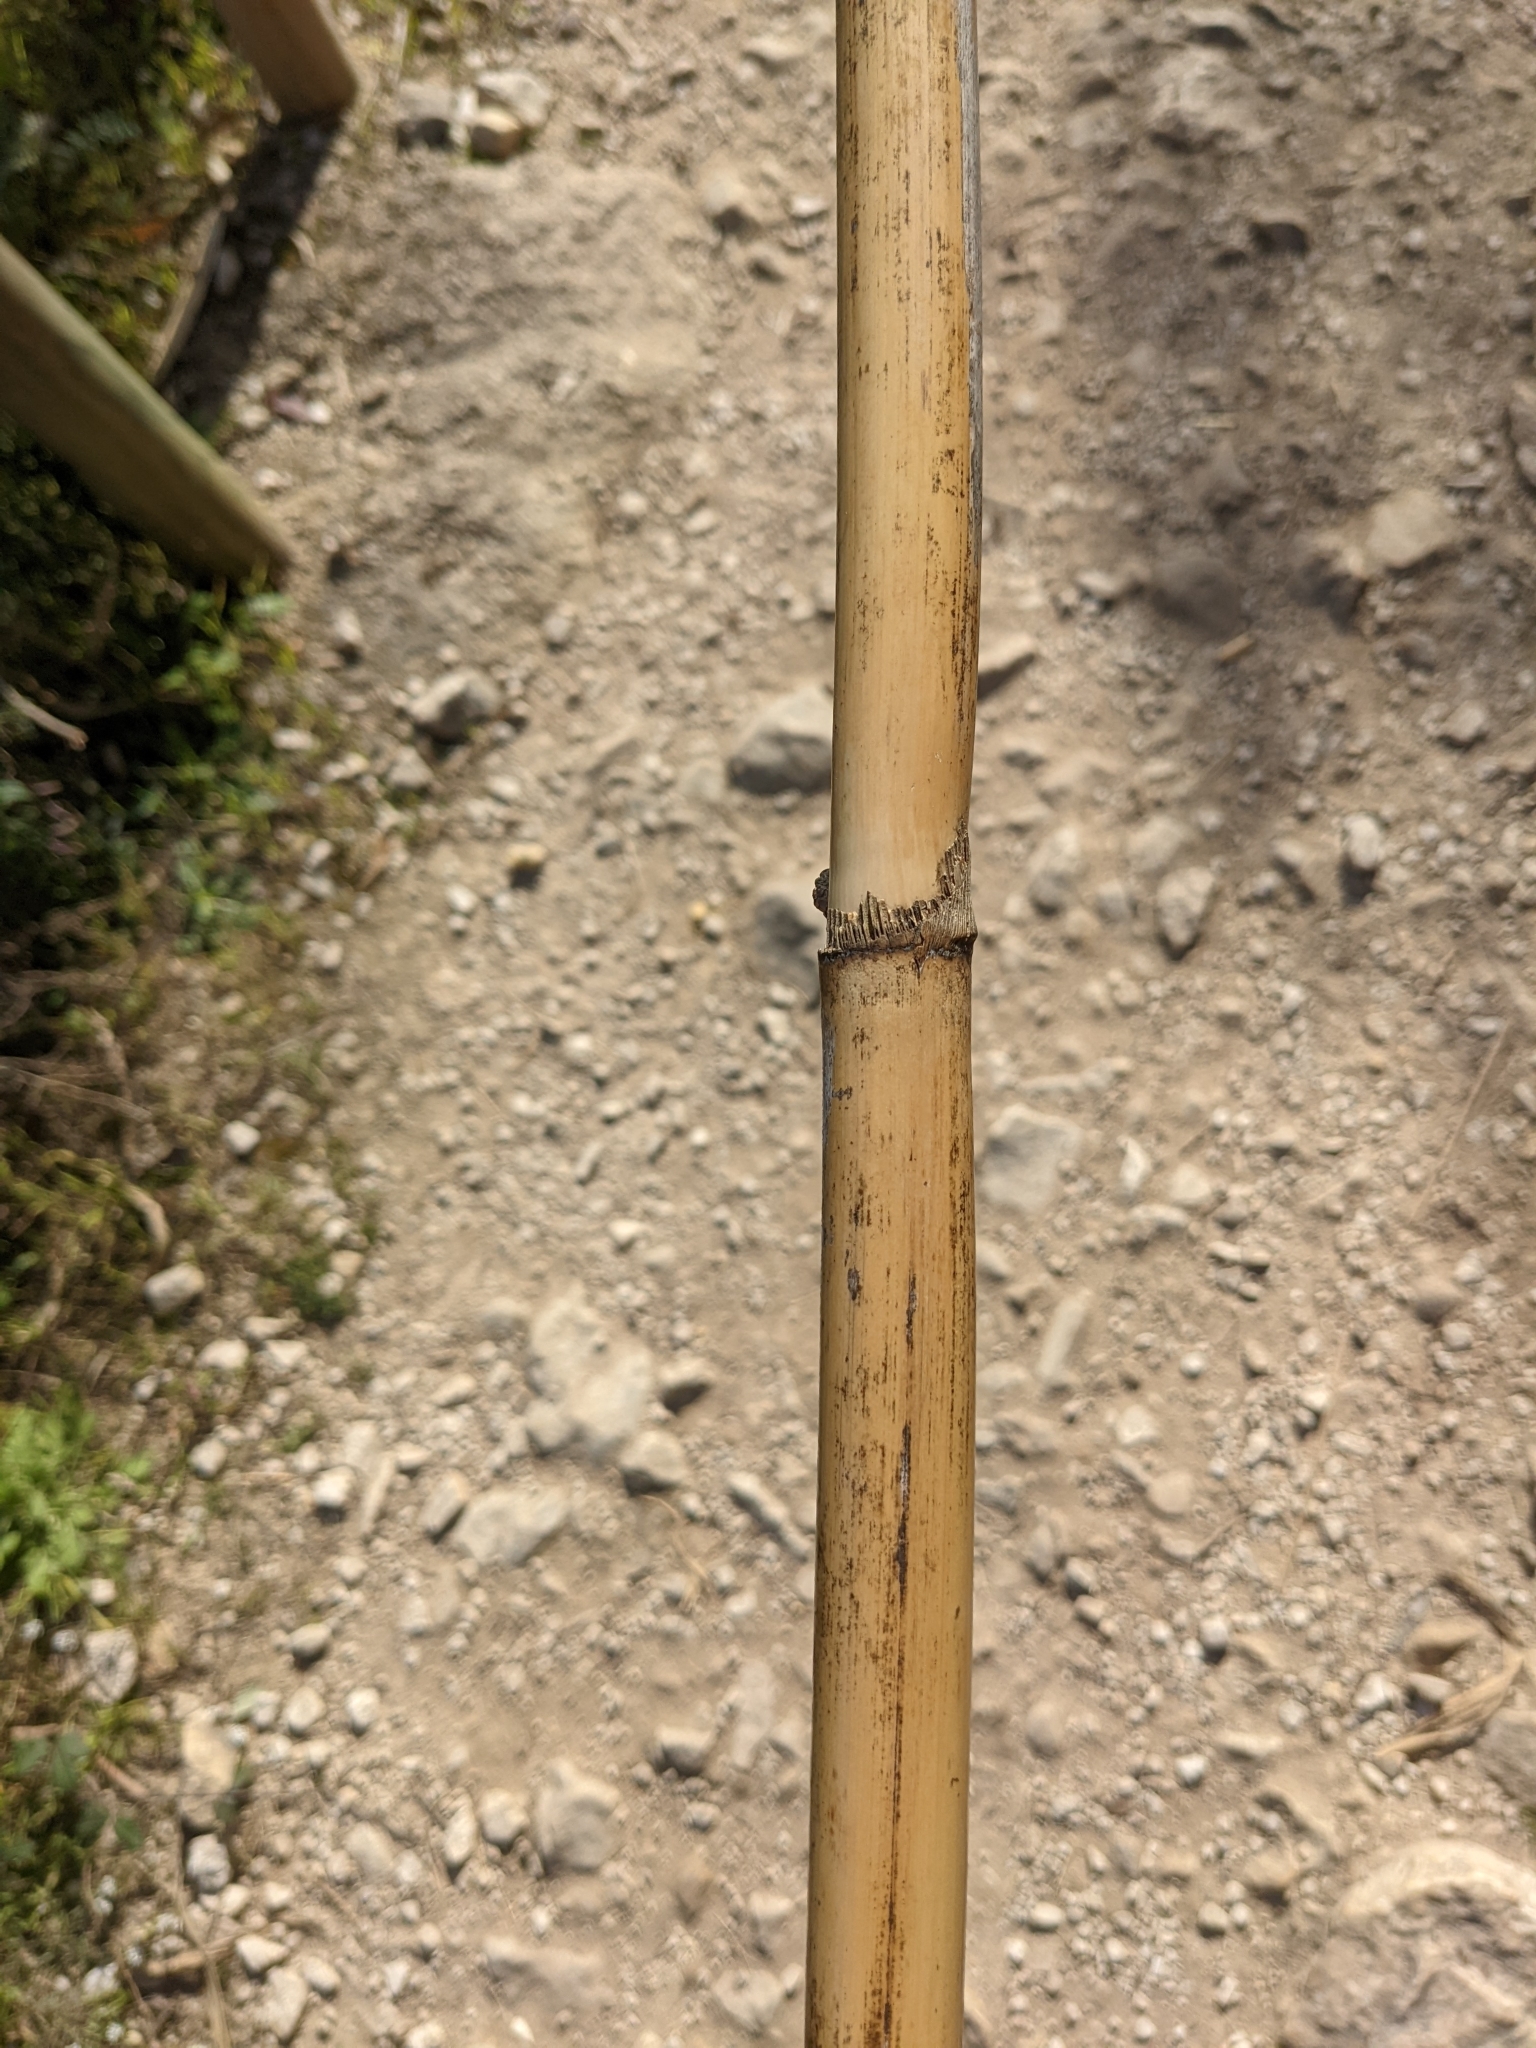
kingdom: Plantae
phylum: Tracheophyta
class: Liliopsida
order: Poales
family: Poaceae
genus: Arundo
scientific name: Arundo donax
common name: Giant reed
